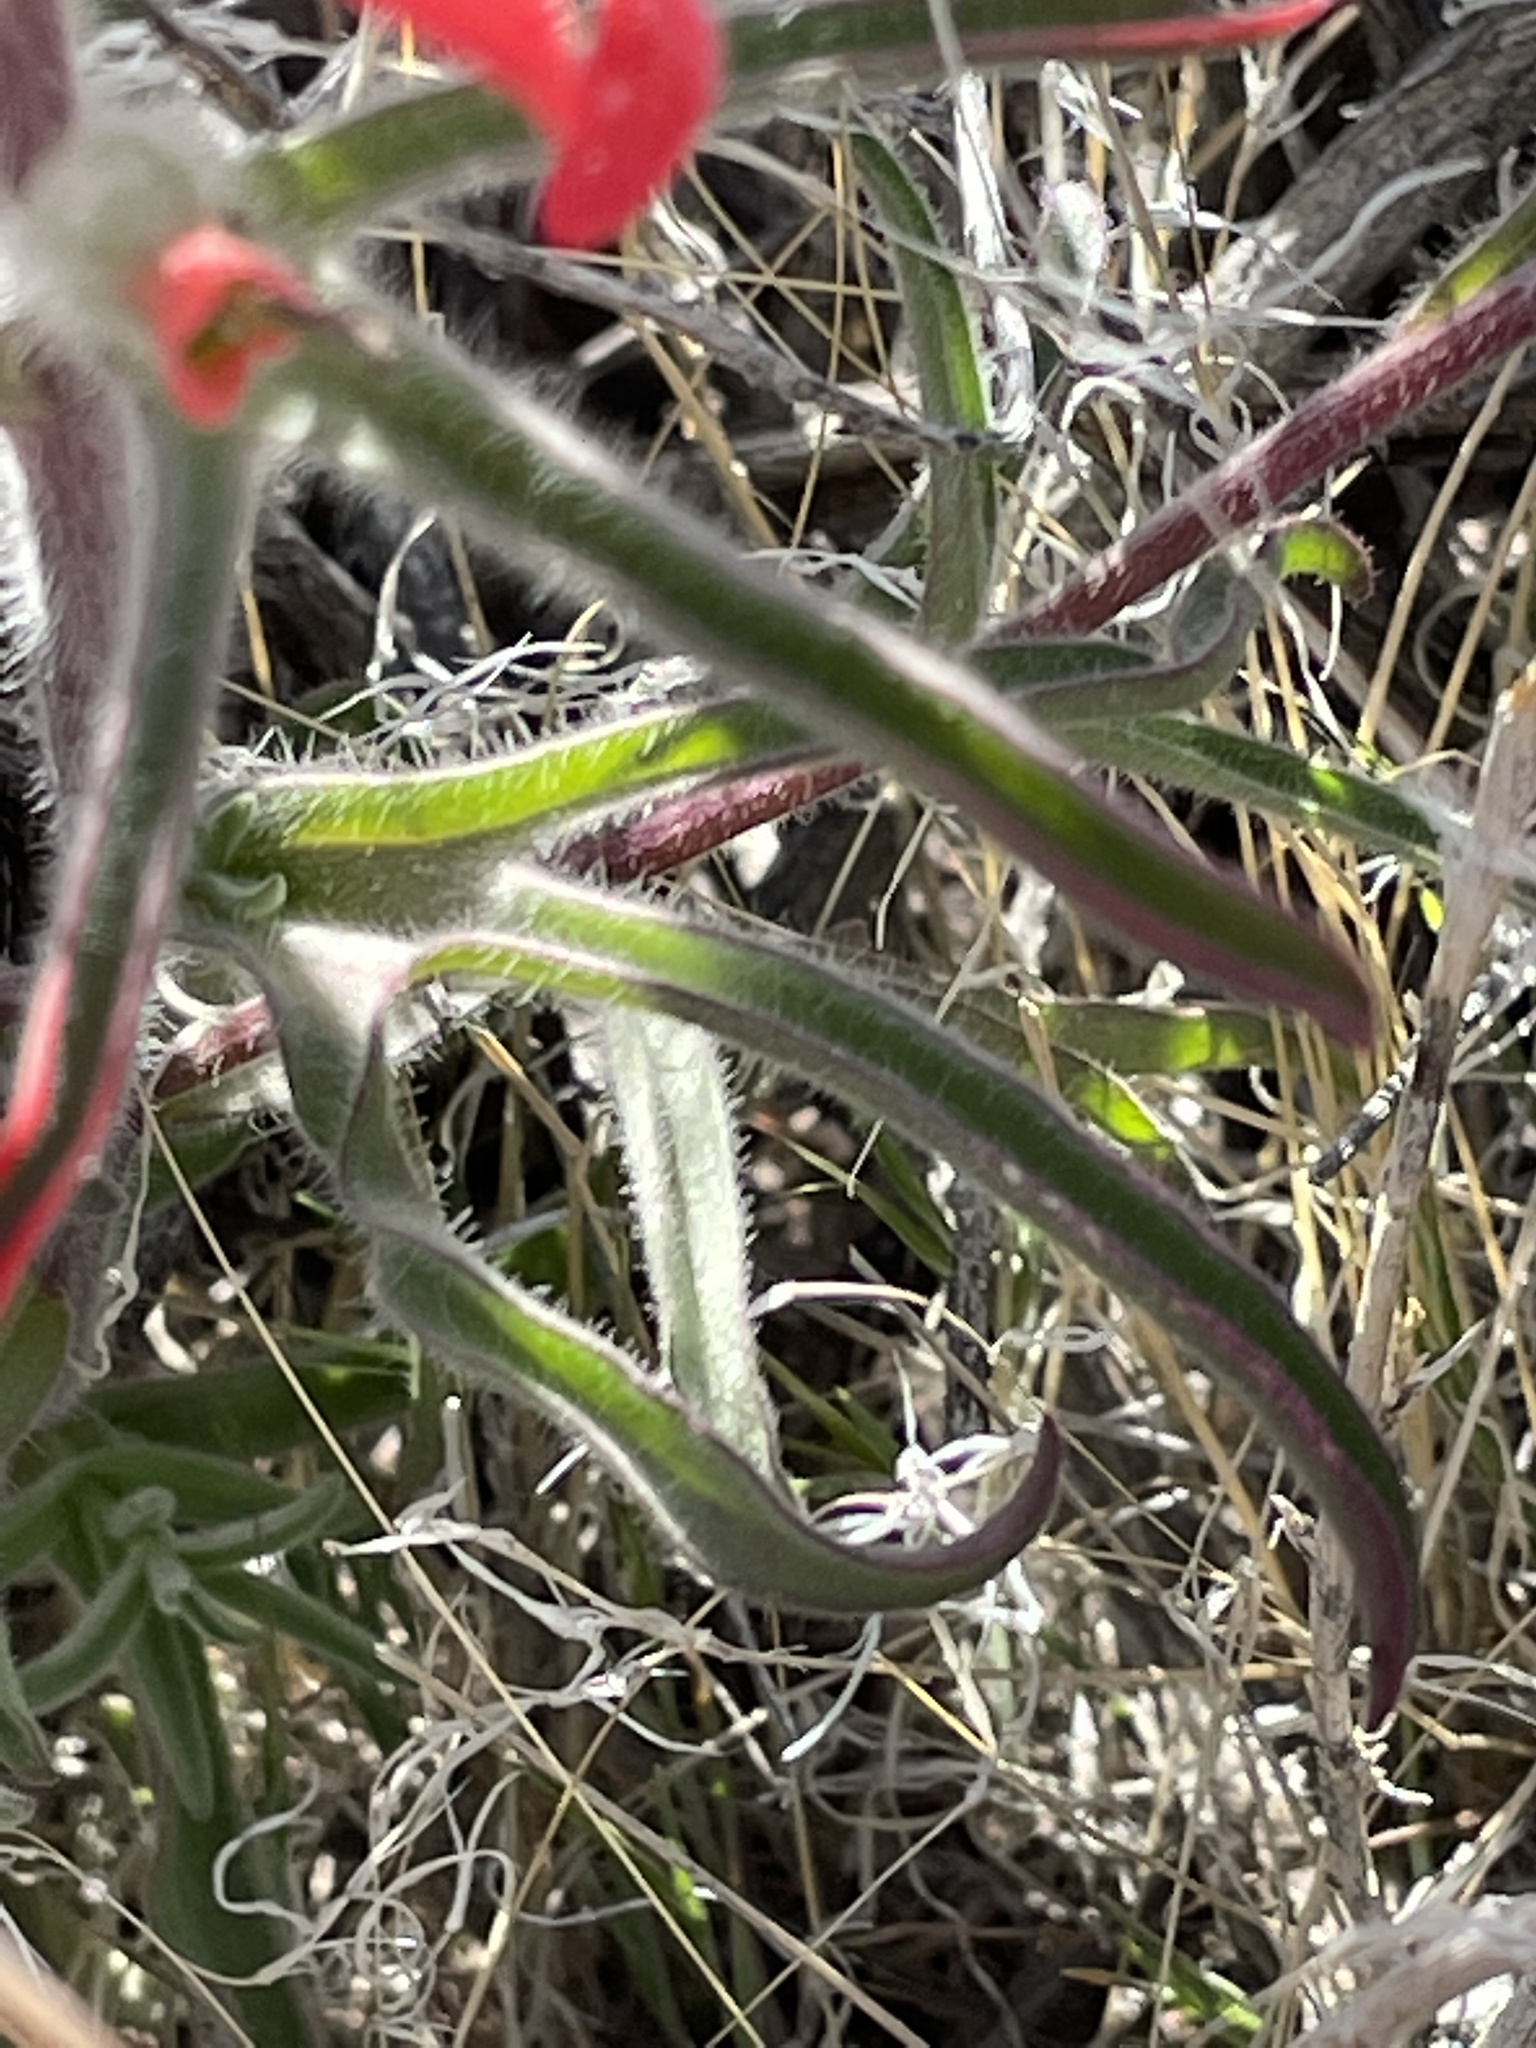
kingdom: Plantae
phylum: Tracheophyta
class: Magnoliopsida
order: Lamiales
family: Orobanchaceae
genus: Castilleja
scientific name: Castilleja chromosa
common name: Desert paintbrush
